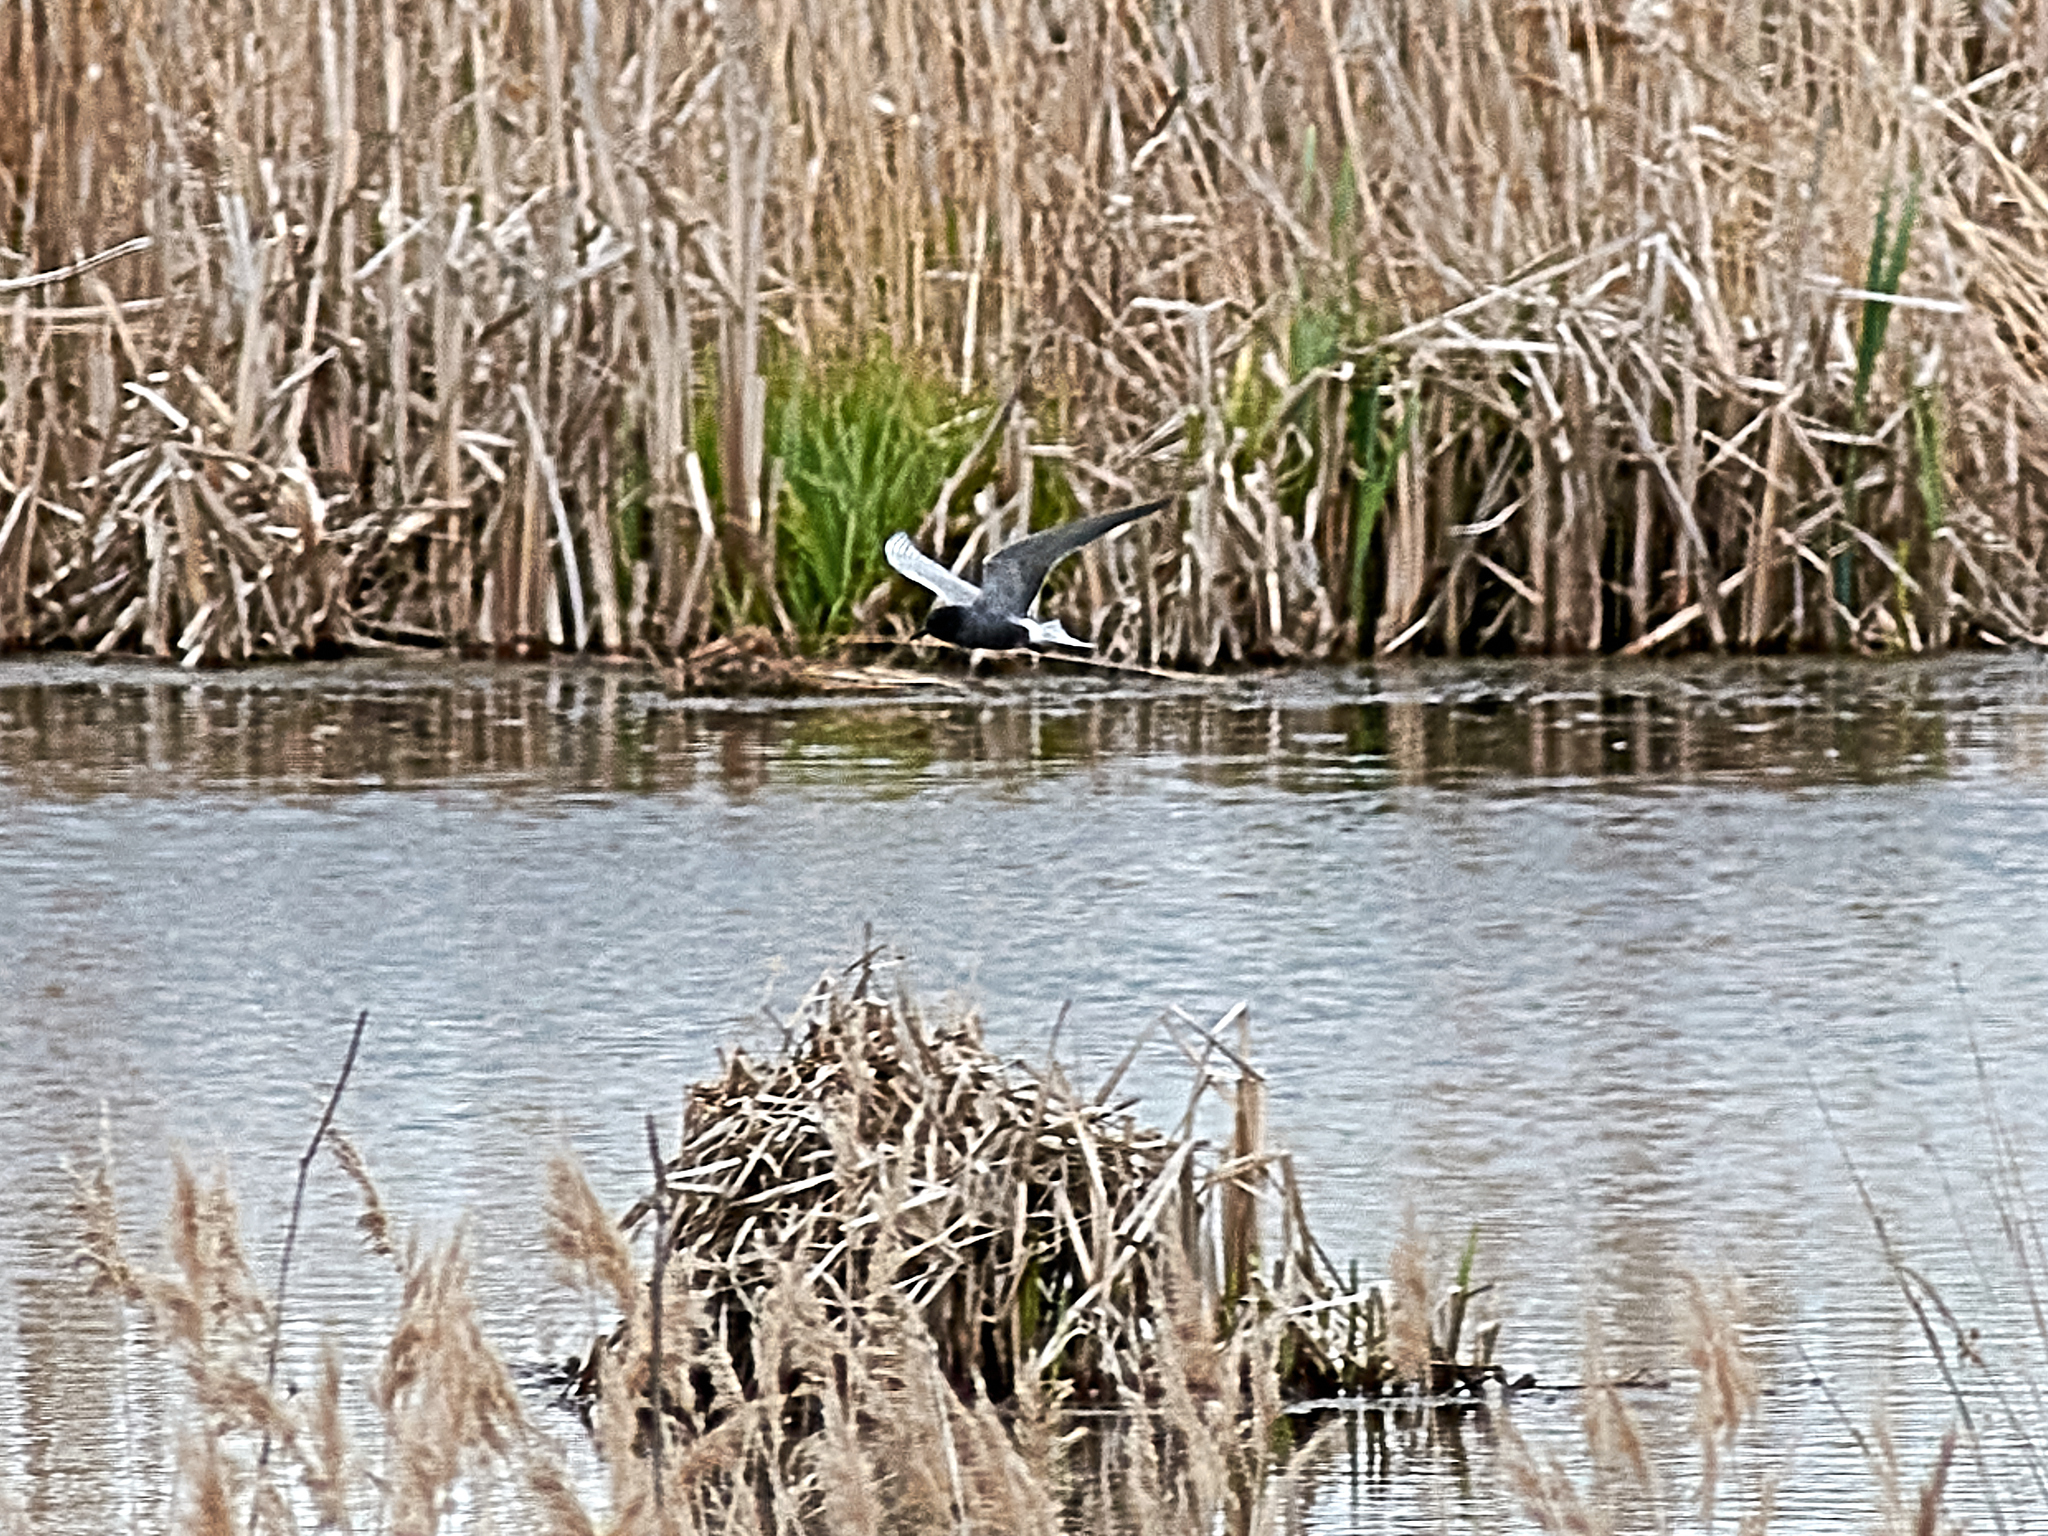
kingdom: Animalia
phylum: Chordata
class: Aves
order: Charadriiformes
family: Laridae
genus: Chlidonias
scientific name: Chlidonias niger
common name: Black tern
